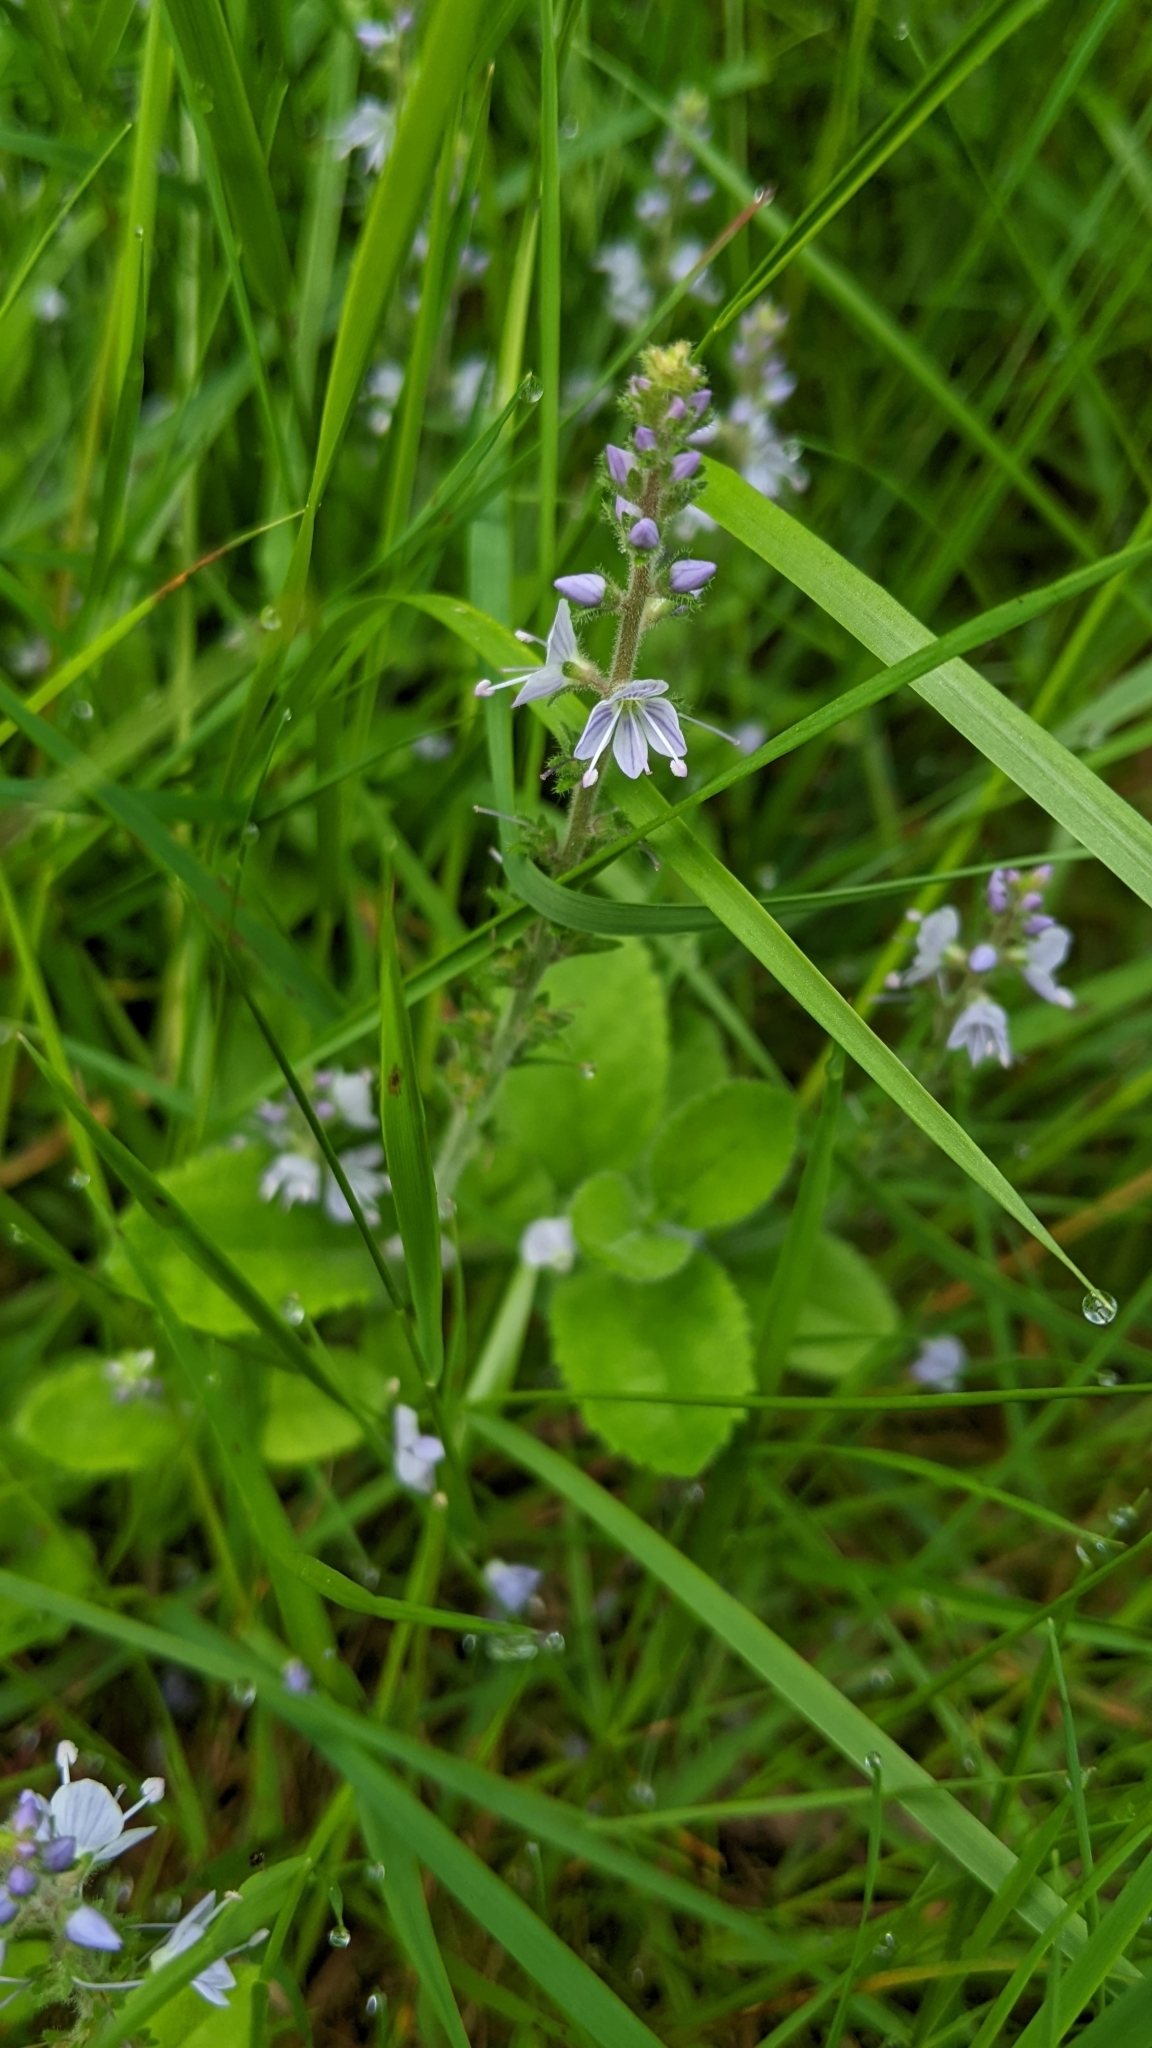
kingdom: Plantae
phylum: Tracheophyta
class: Magnoliopsida
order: Lamiales
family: Plantaginaceae
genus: Veronica
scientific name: Veronica officinalis
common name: Common speedwell
